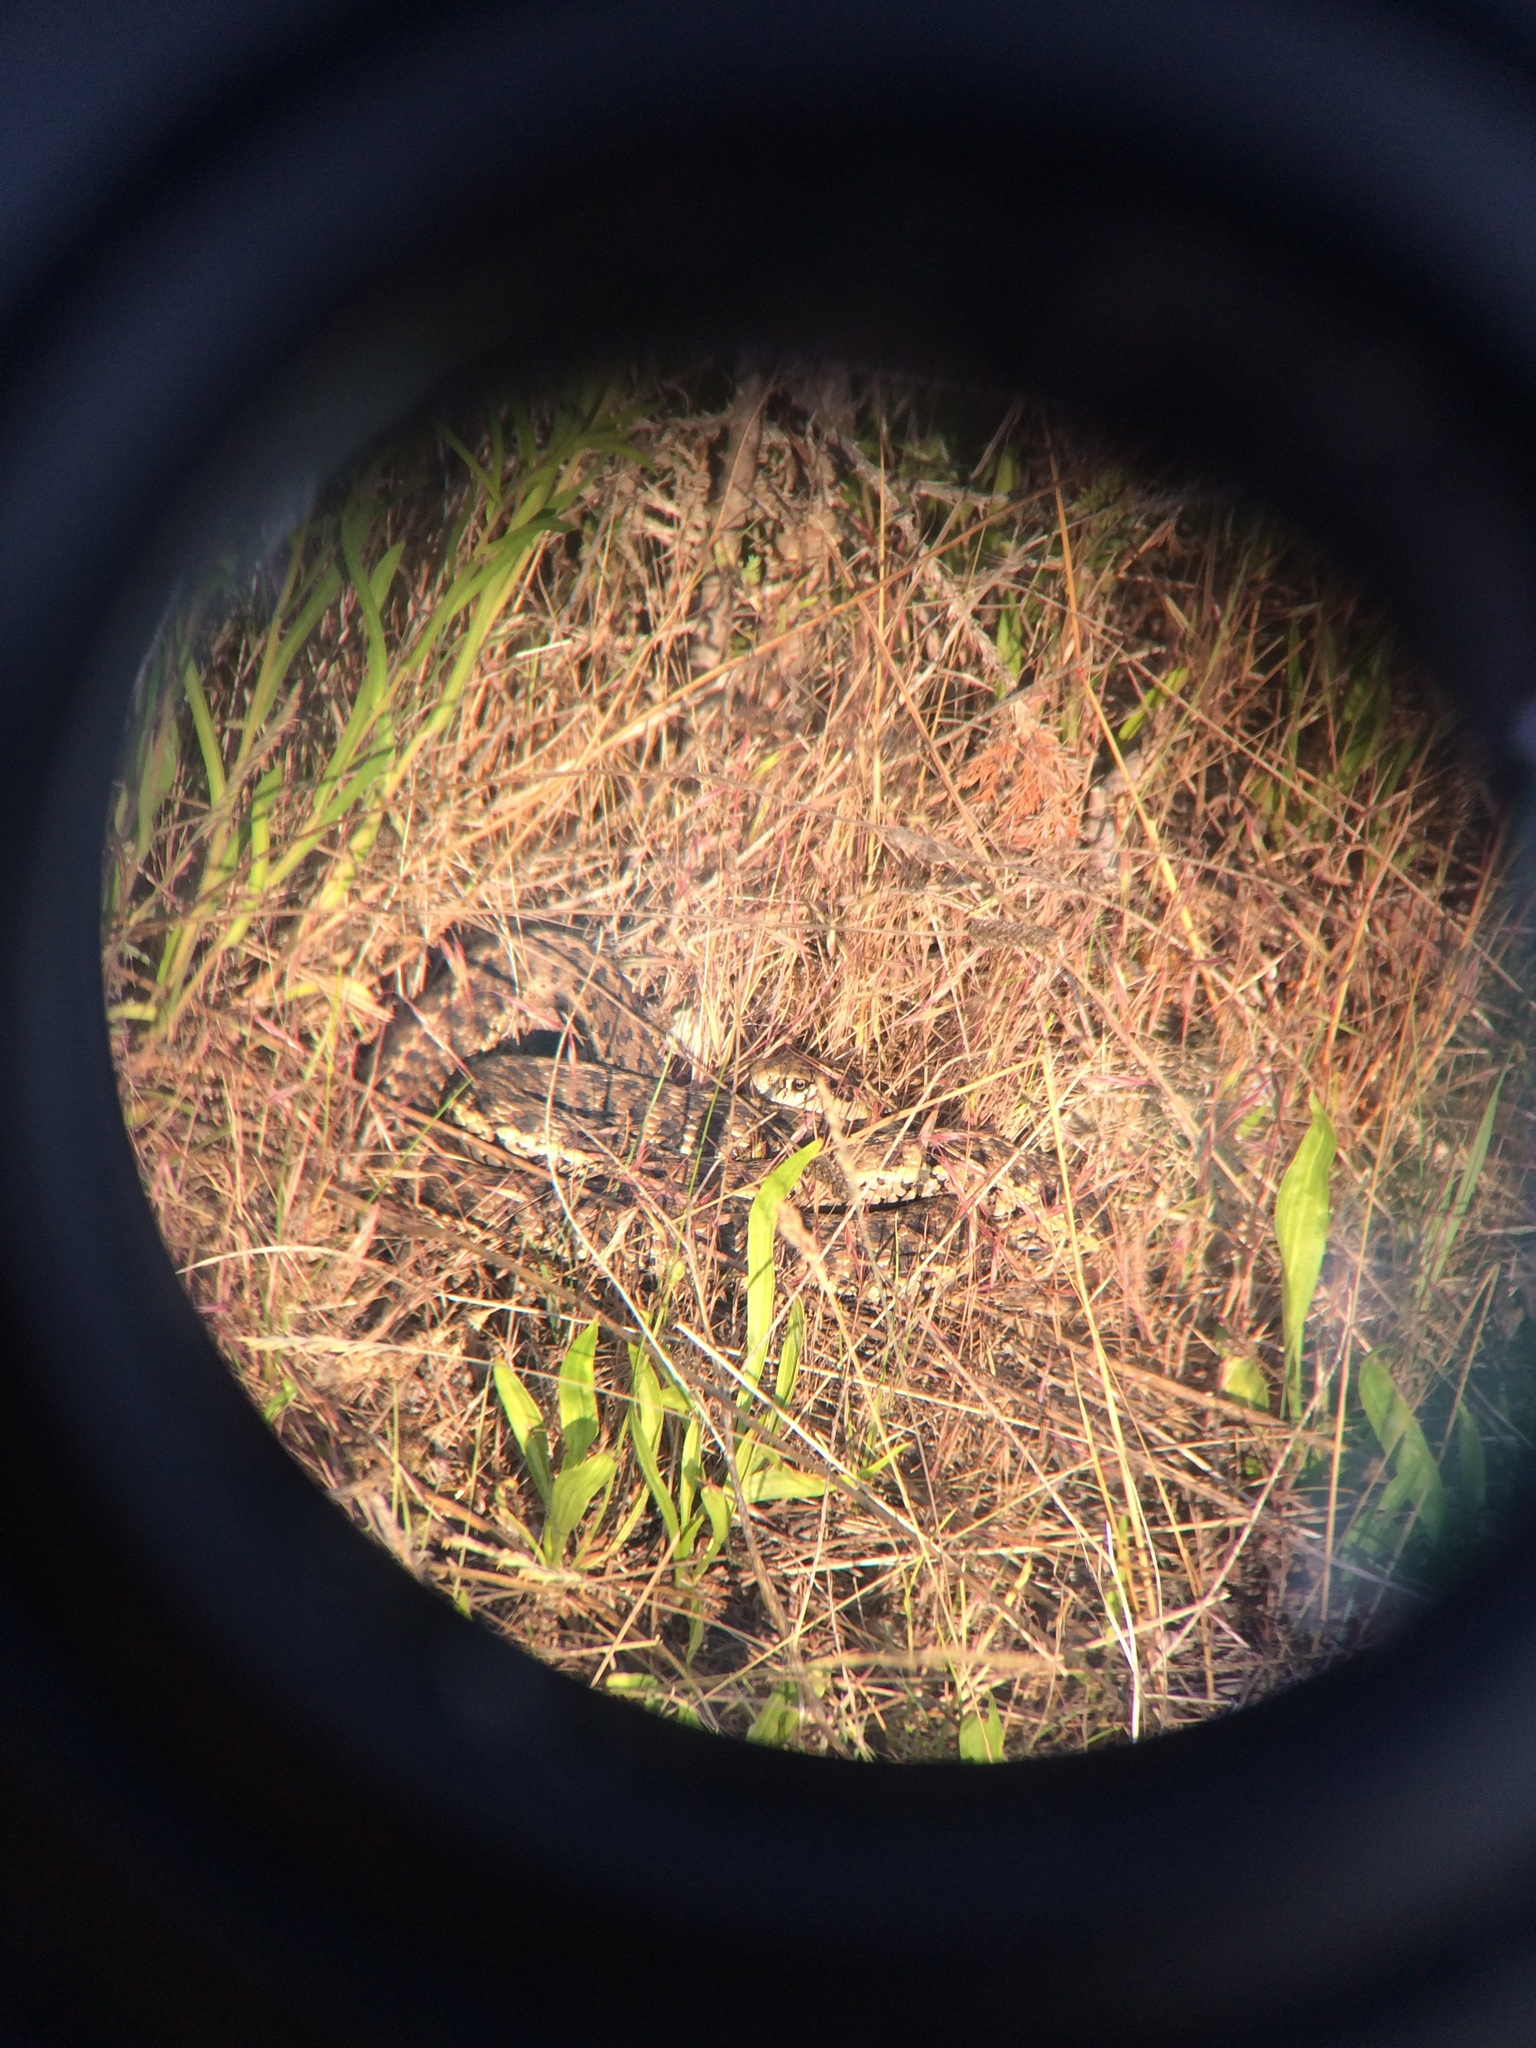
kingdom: Animalia
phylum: Chordata
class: Squamata
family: Colubridae
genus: Thamnophis
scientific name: Thamnophis elegans
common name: Western terrestrial garter snake
